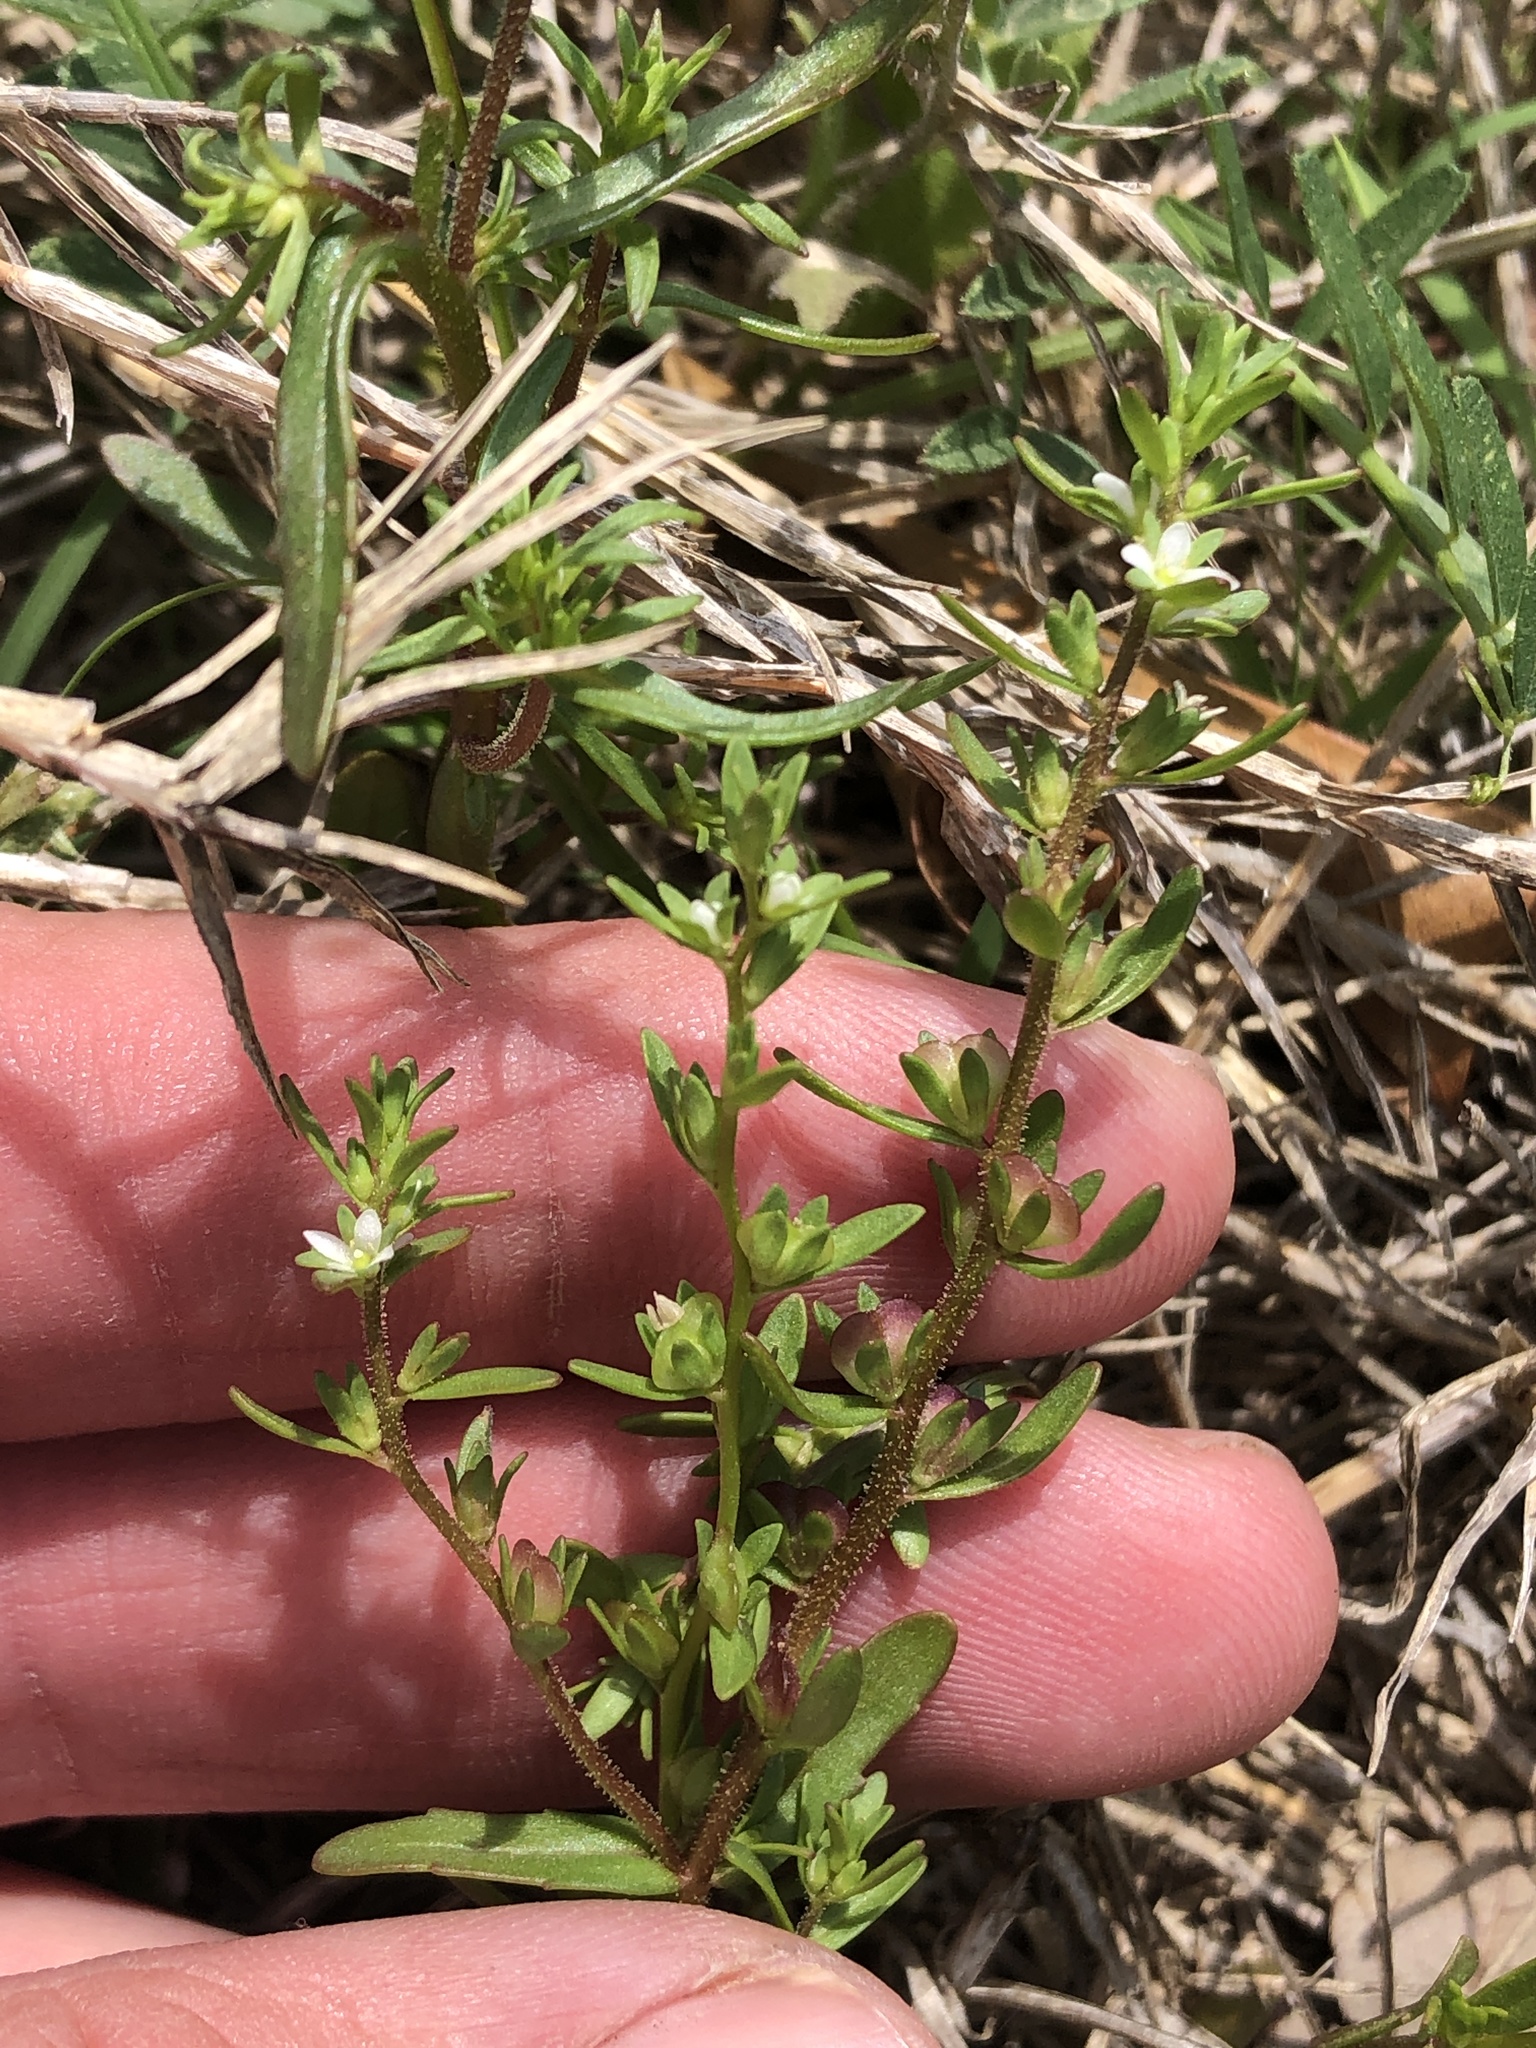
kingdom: Plantae
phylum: Tracheophyta
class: Magnoliopsida
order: Lamiales
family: Plantaginaceae
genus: Veronica
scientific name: Veronica peregrina
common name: Neckweed
